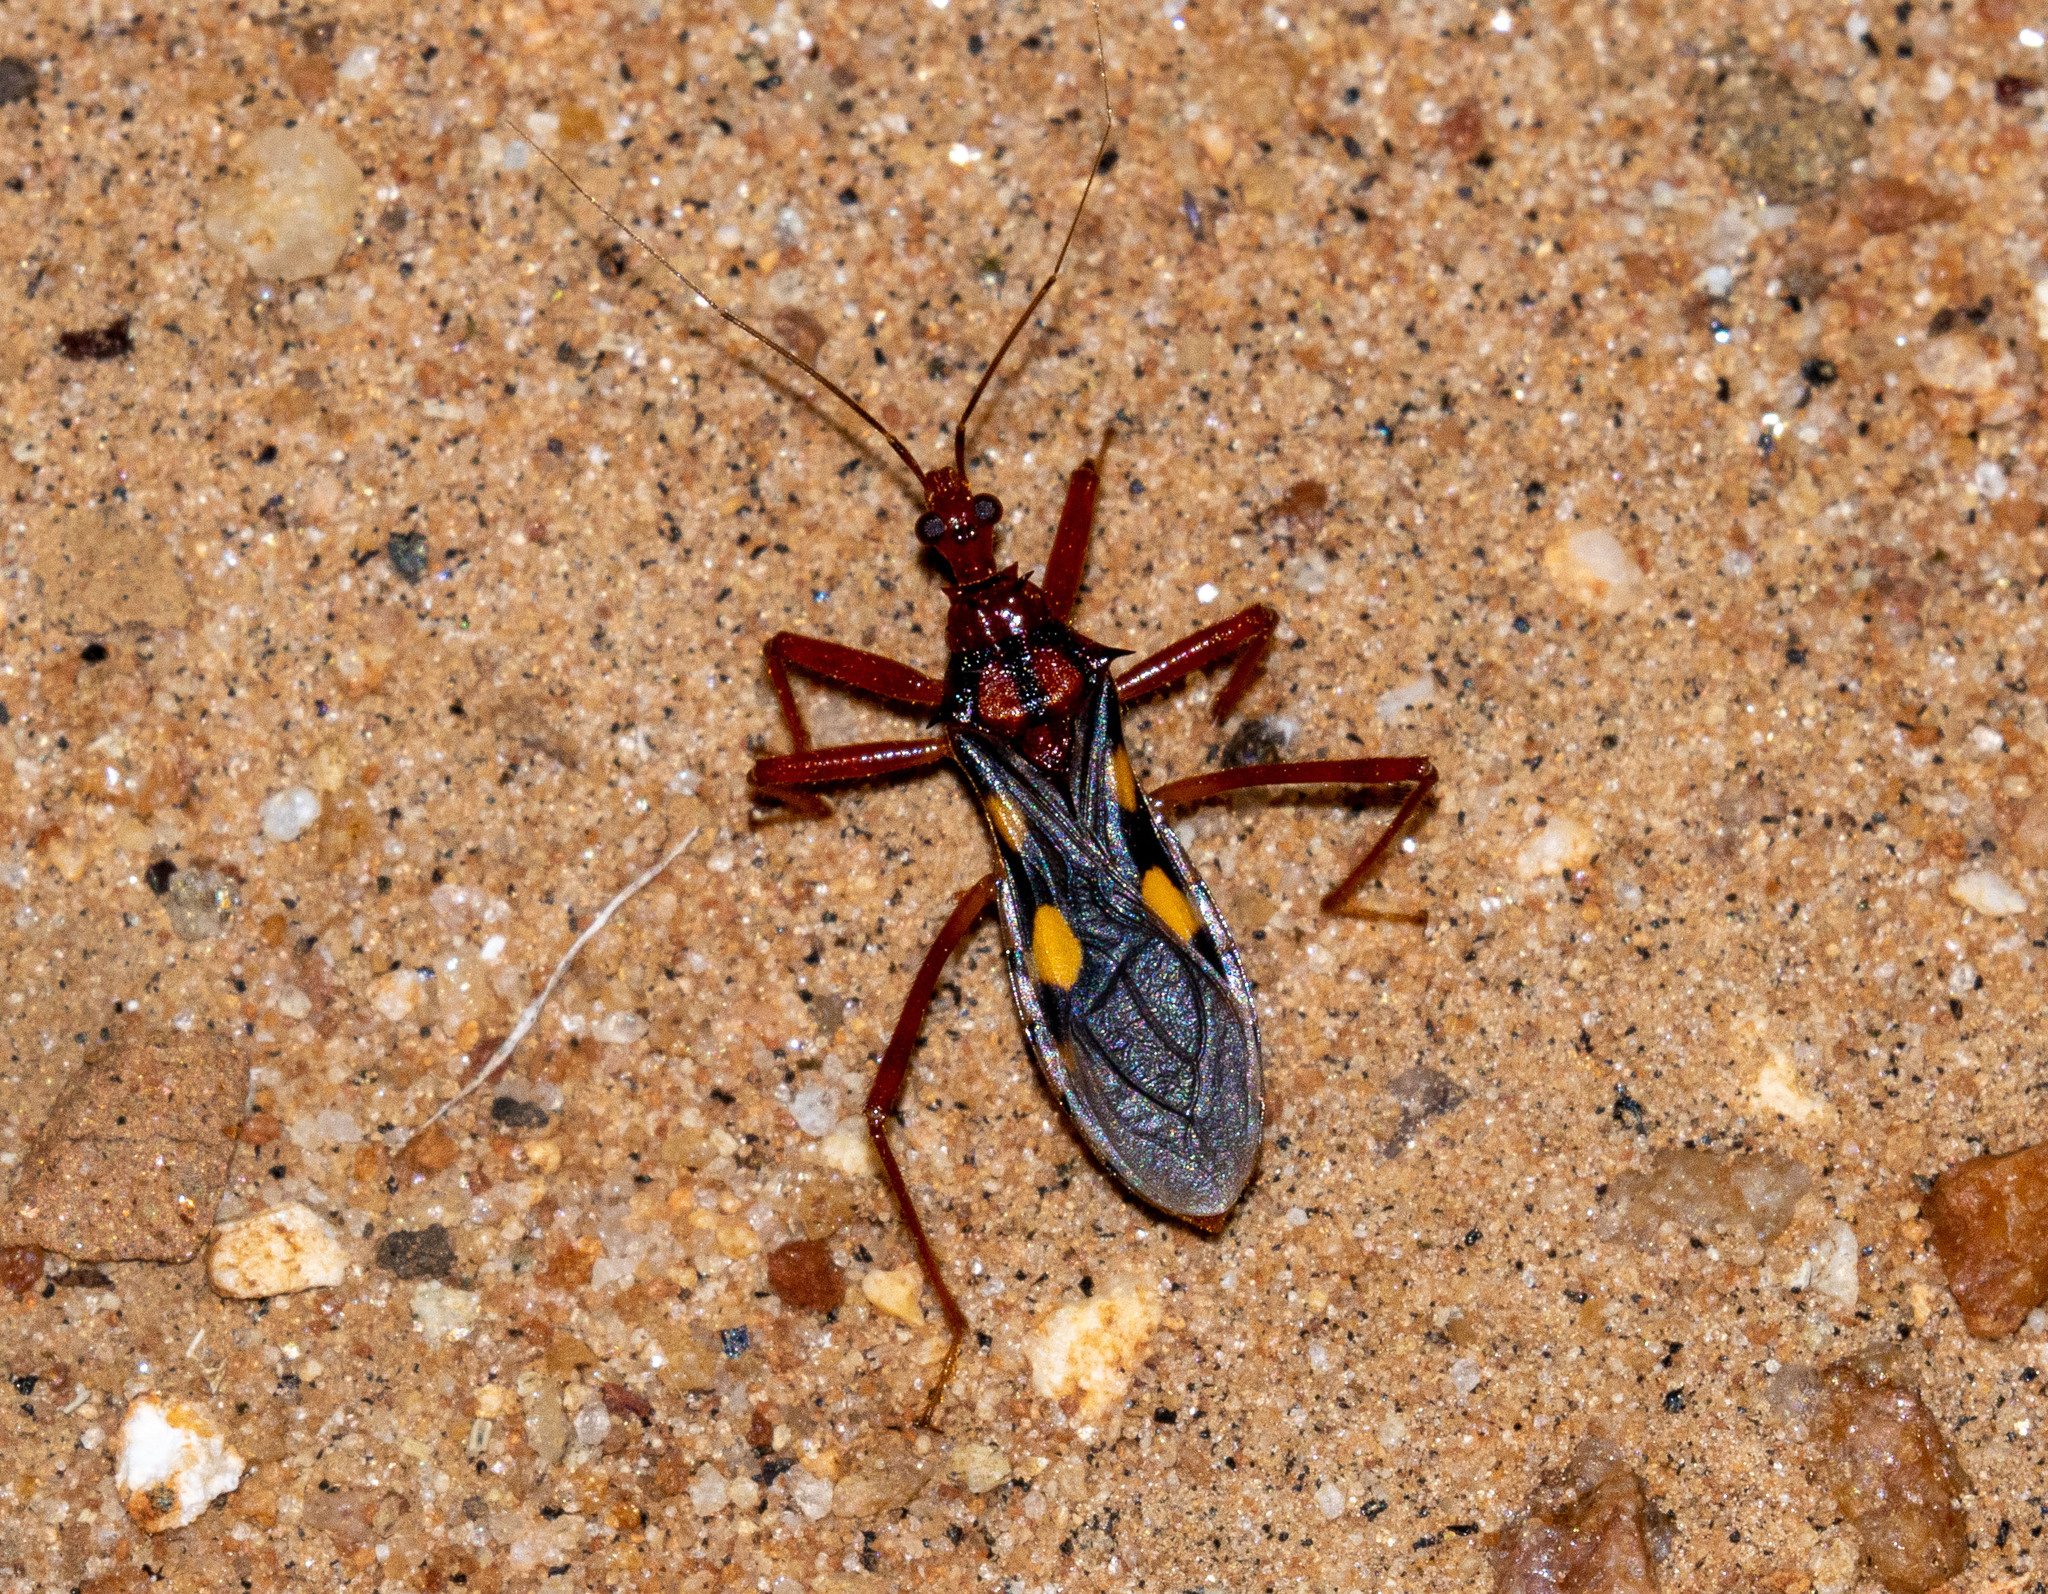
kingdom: Animalia
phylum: Arthropoda
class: Insecta
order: Hemiptera
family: Reduviidae
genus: Zelurus
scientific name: Zelurus nigrolineatus
